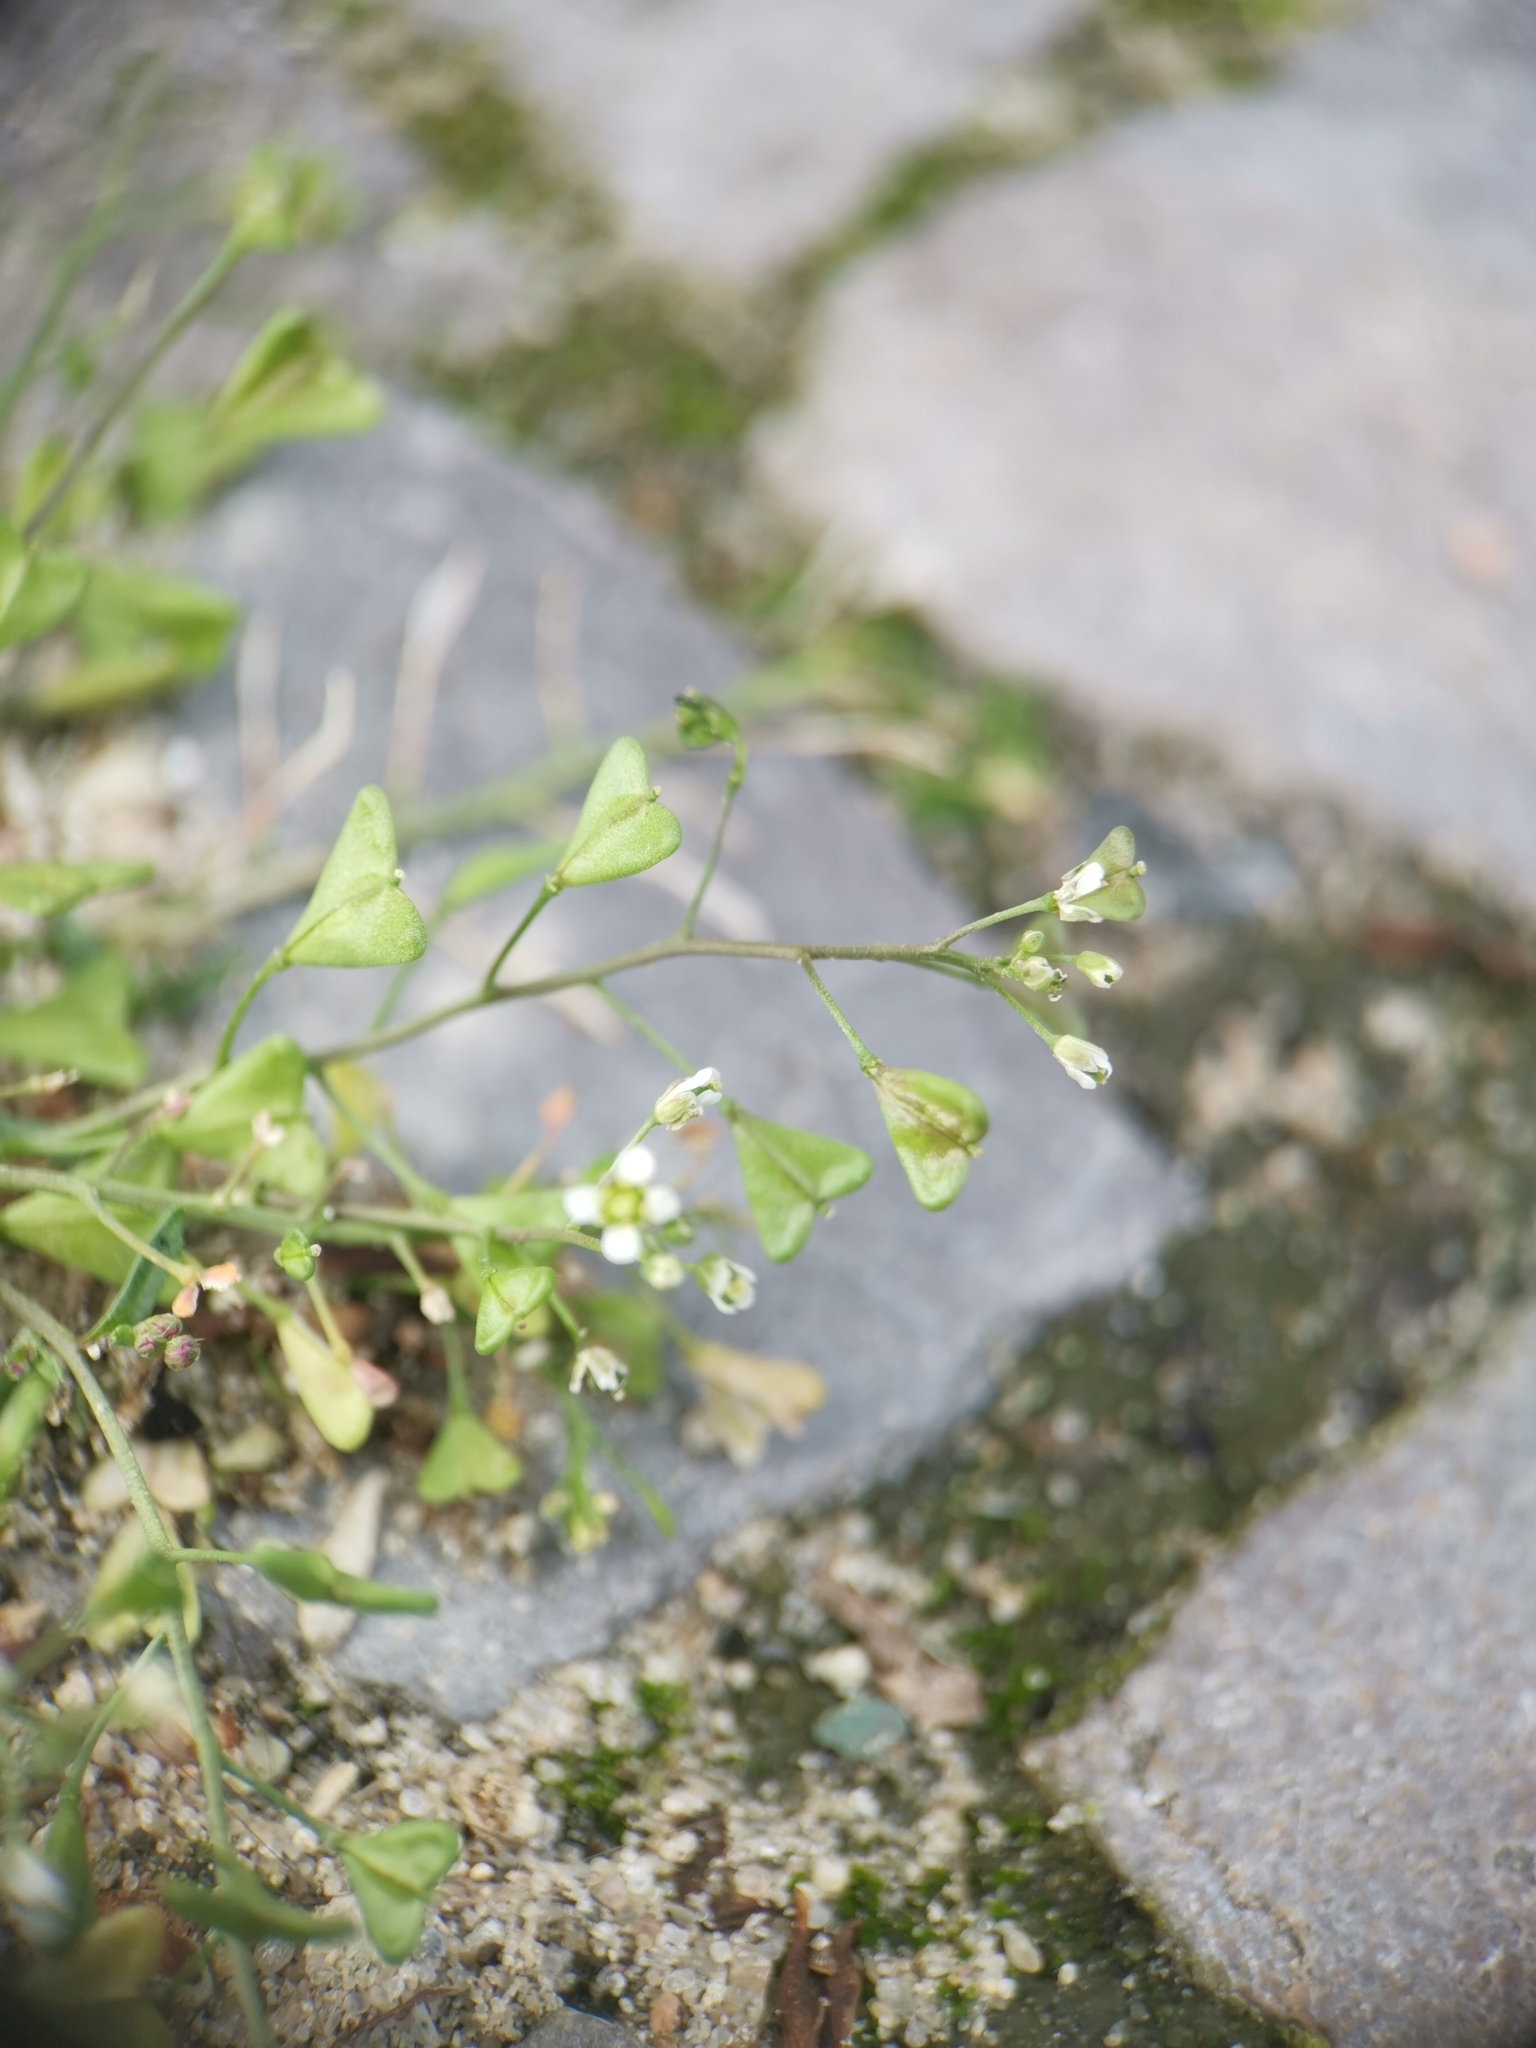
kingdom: Plantae
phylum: Tracheophyta
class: Magnoliopsida
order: Brassicales
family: Brassicaceae
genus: Capsella
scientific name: Capsella bursa-pastoris
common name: Shepherd's purse
